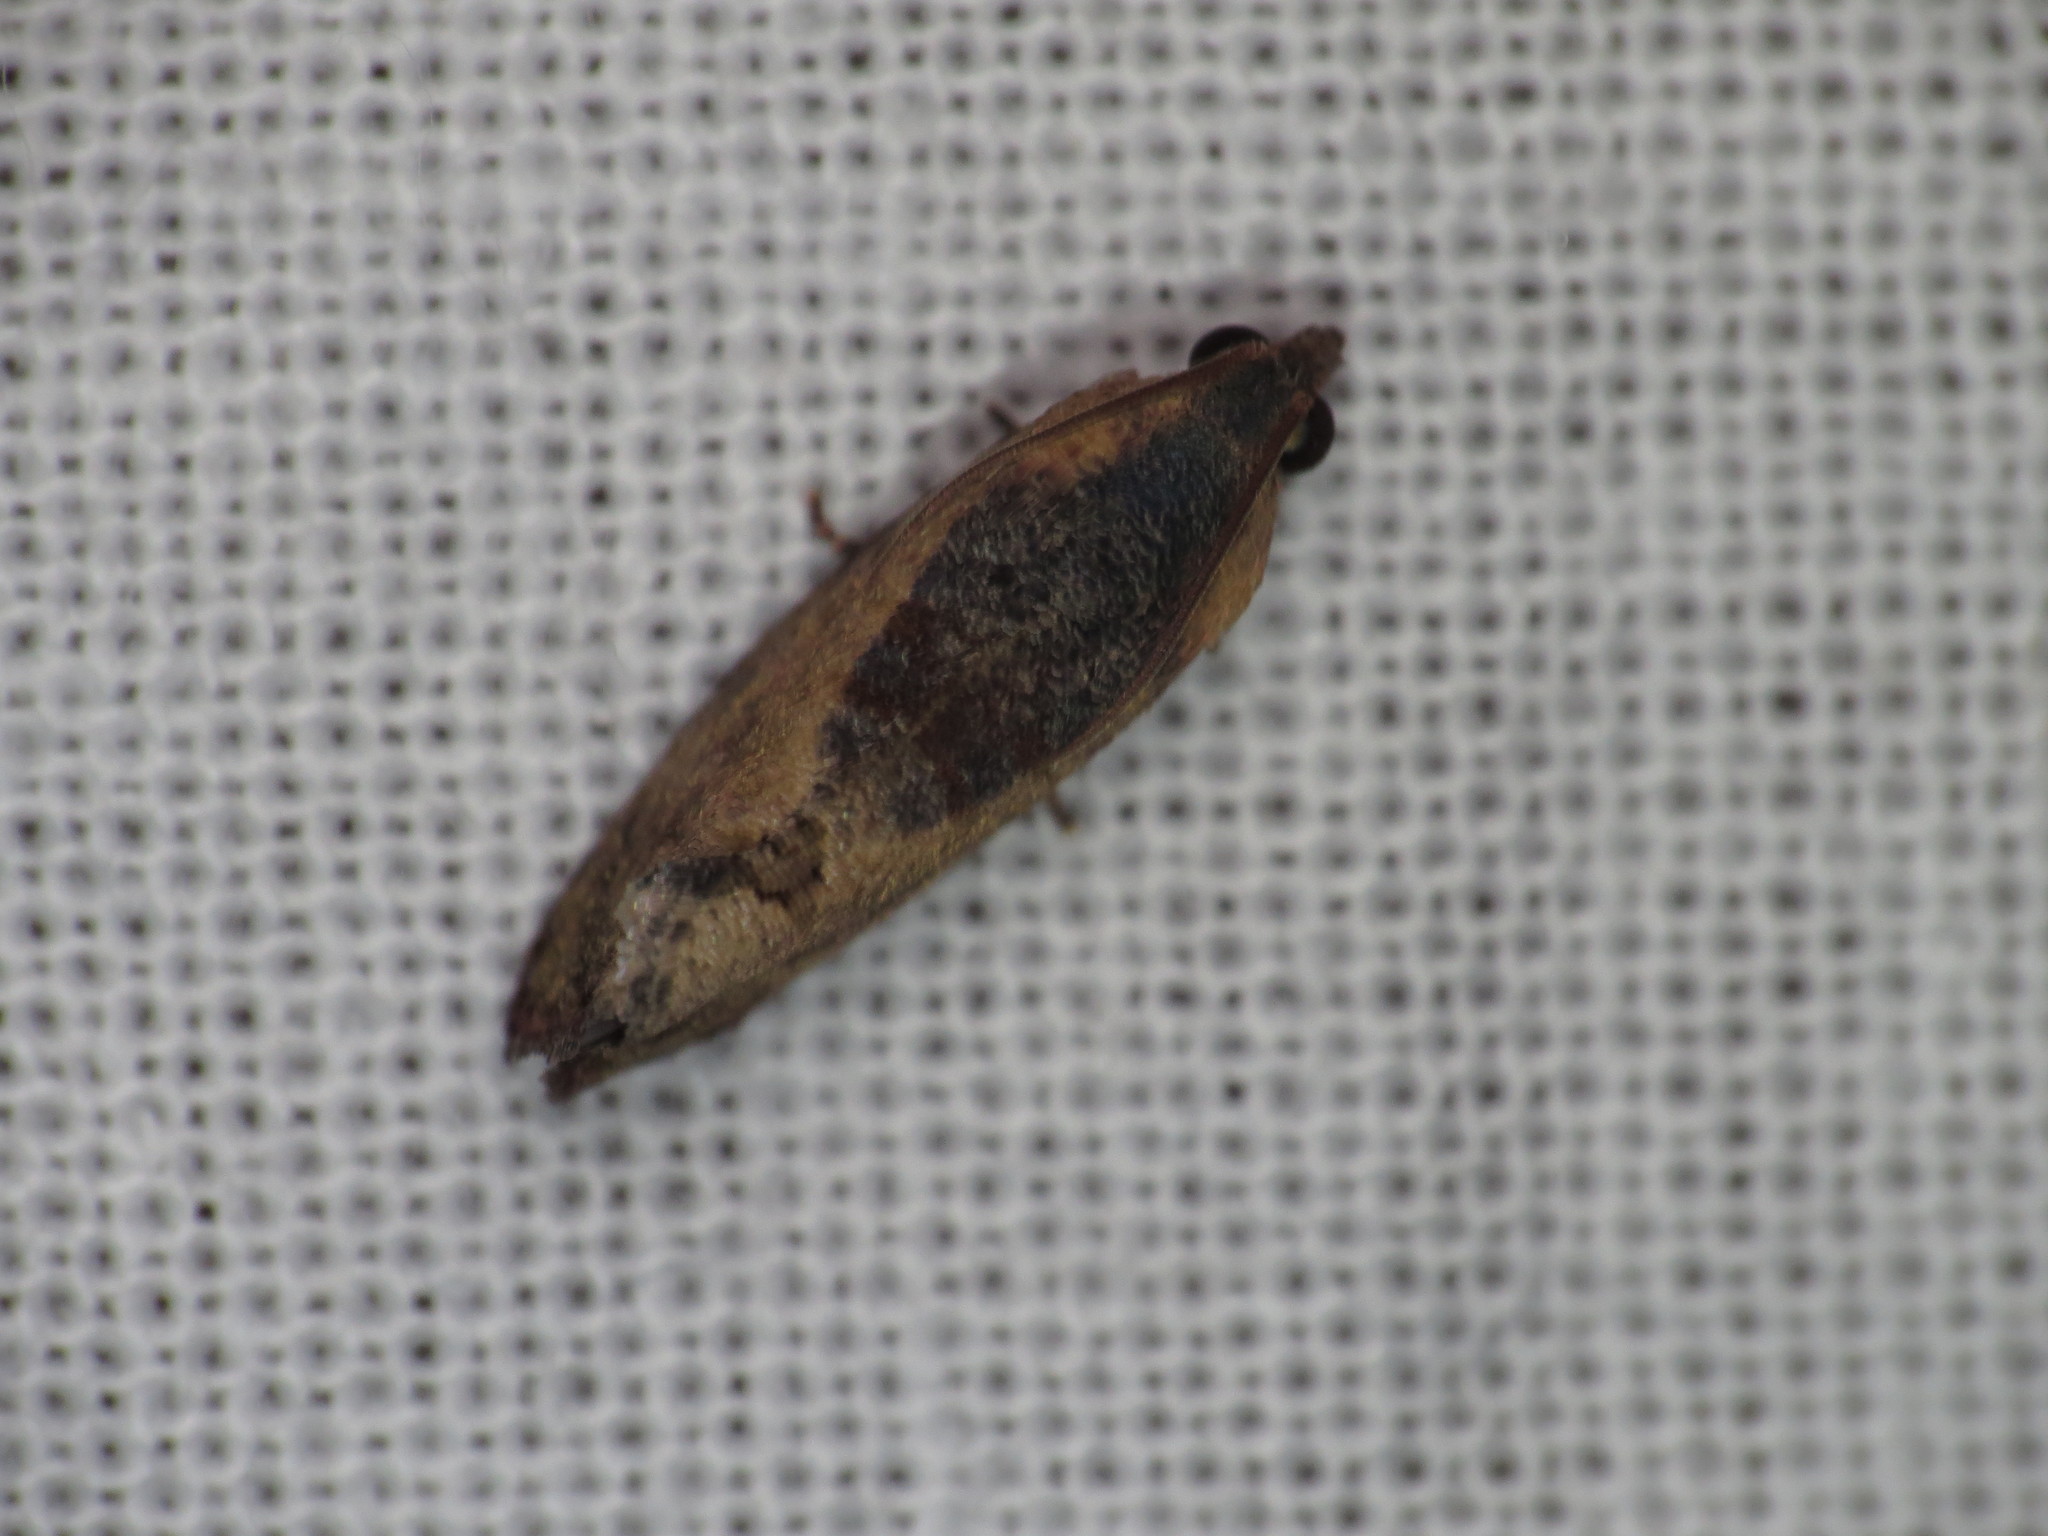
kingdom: Animalia
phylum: Arthropoda
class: Insecta
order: Lepidoptera
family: Tortricidae
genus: Cryptophlebia
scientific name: Cryptophlebia ombrodelta
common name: Litchi fruit moth
